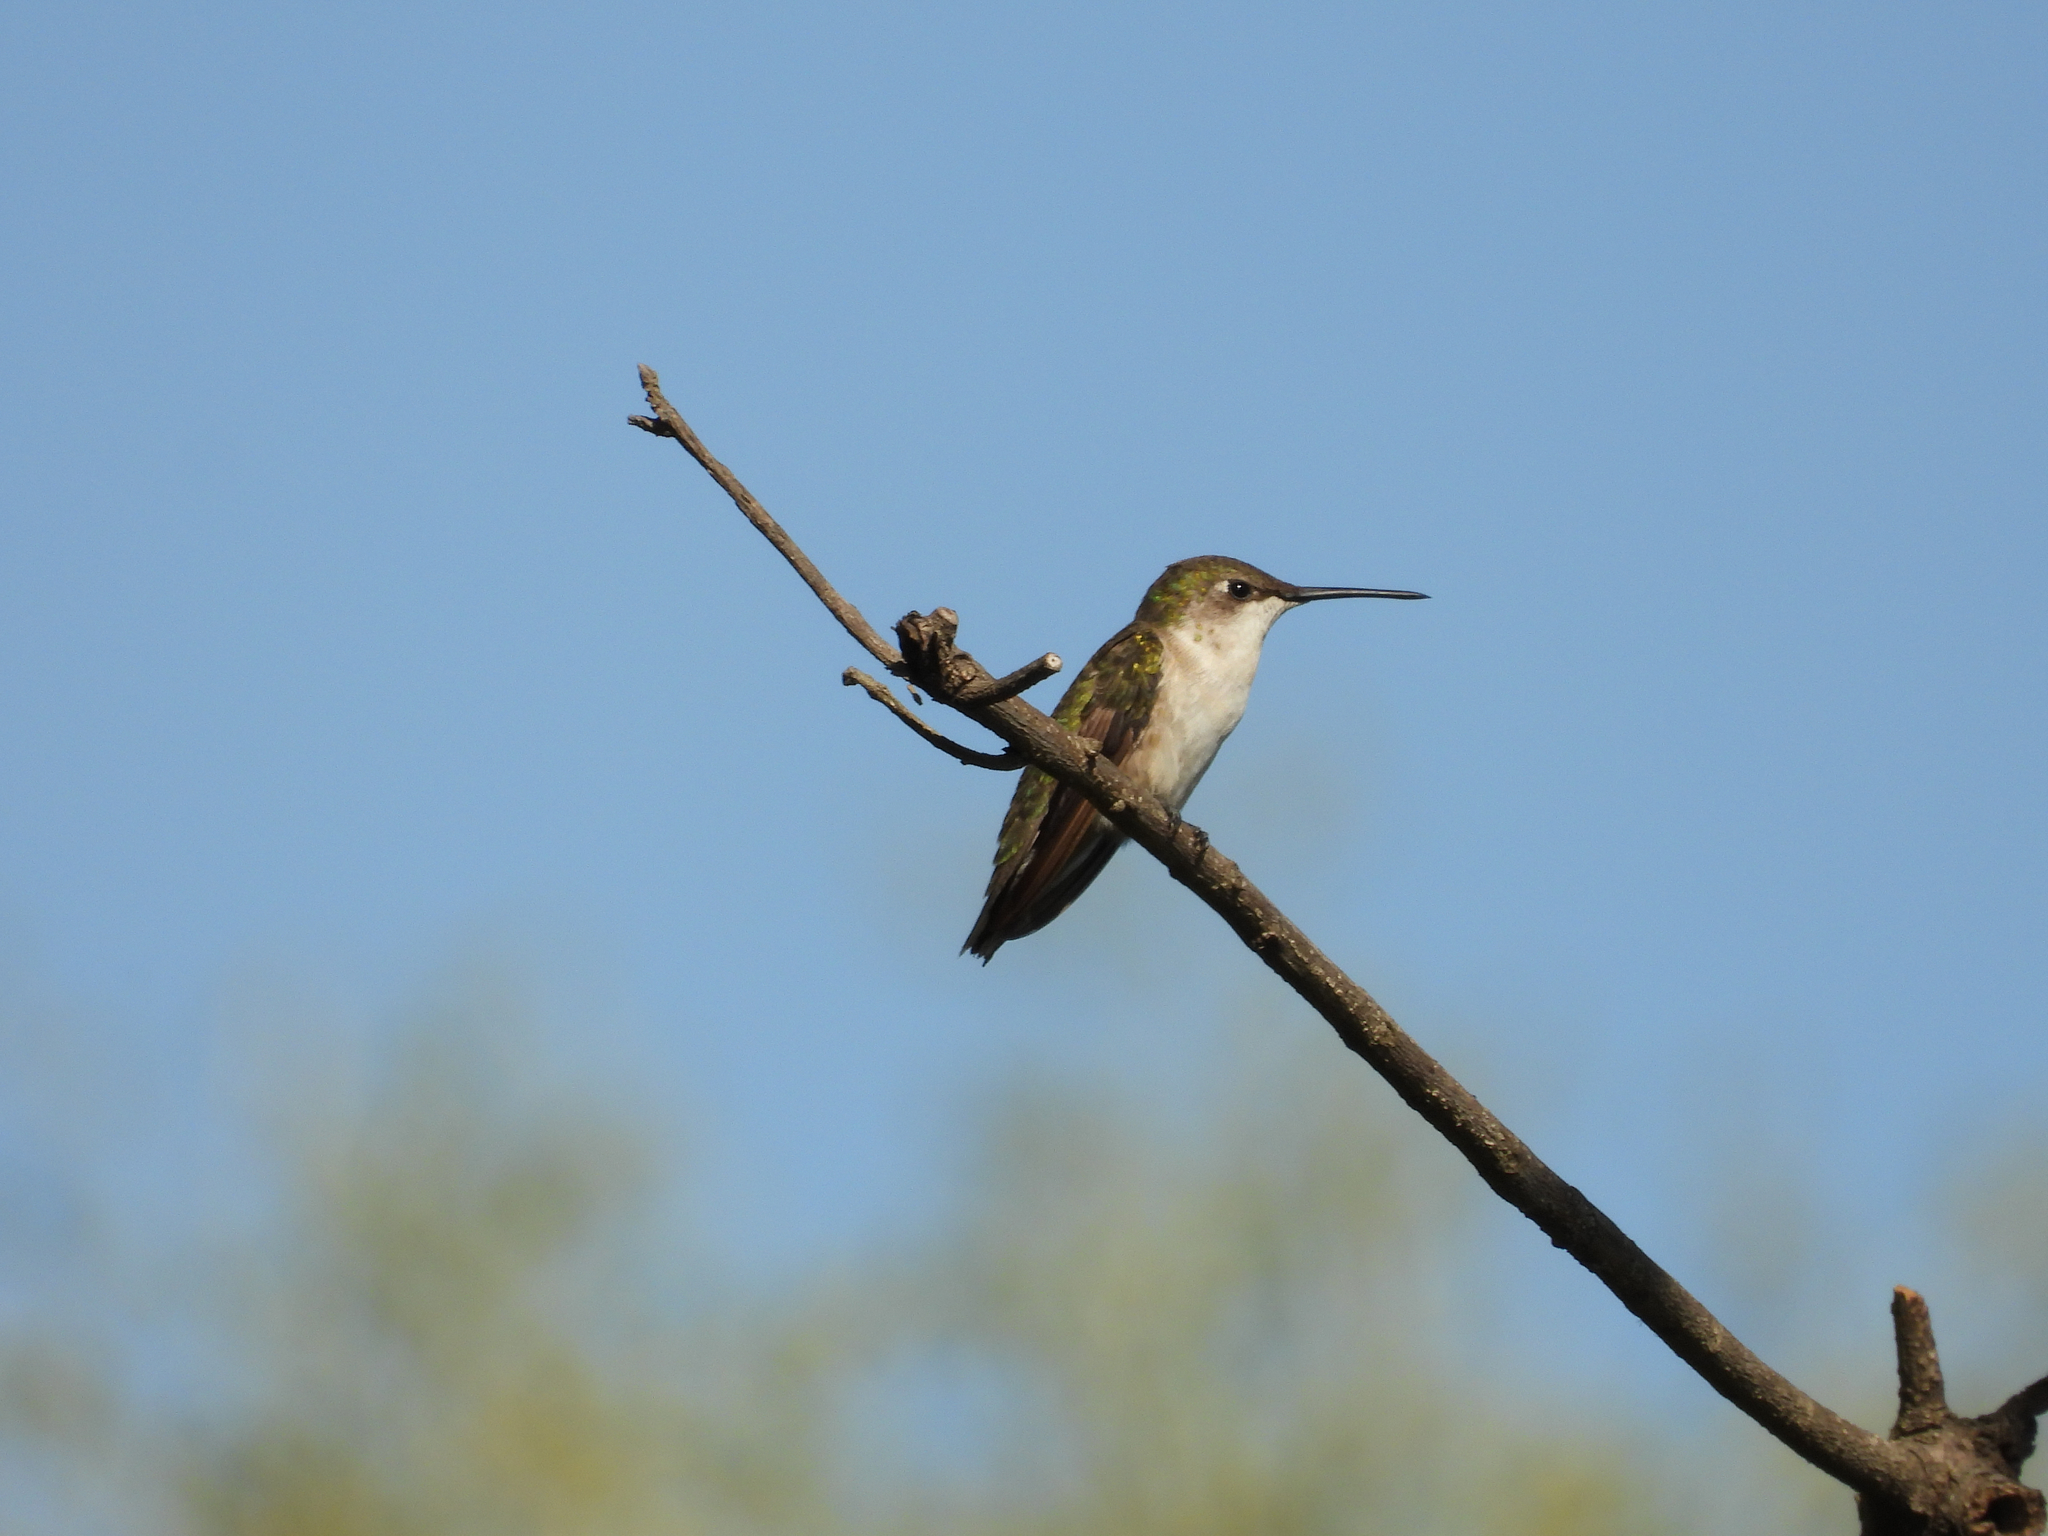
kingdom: Animalia
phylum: Chordata
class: Aves
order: Apodiformes
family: Trochilidae
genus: Archilochus
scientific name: Archilochus colubris
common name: Ruby-throated hummingbird
